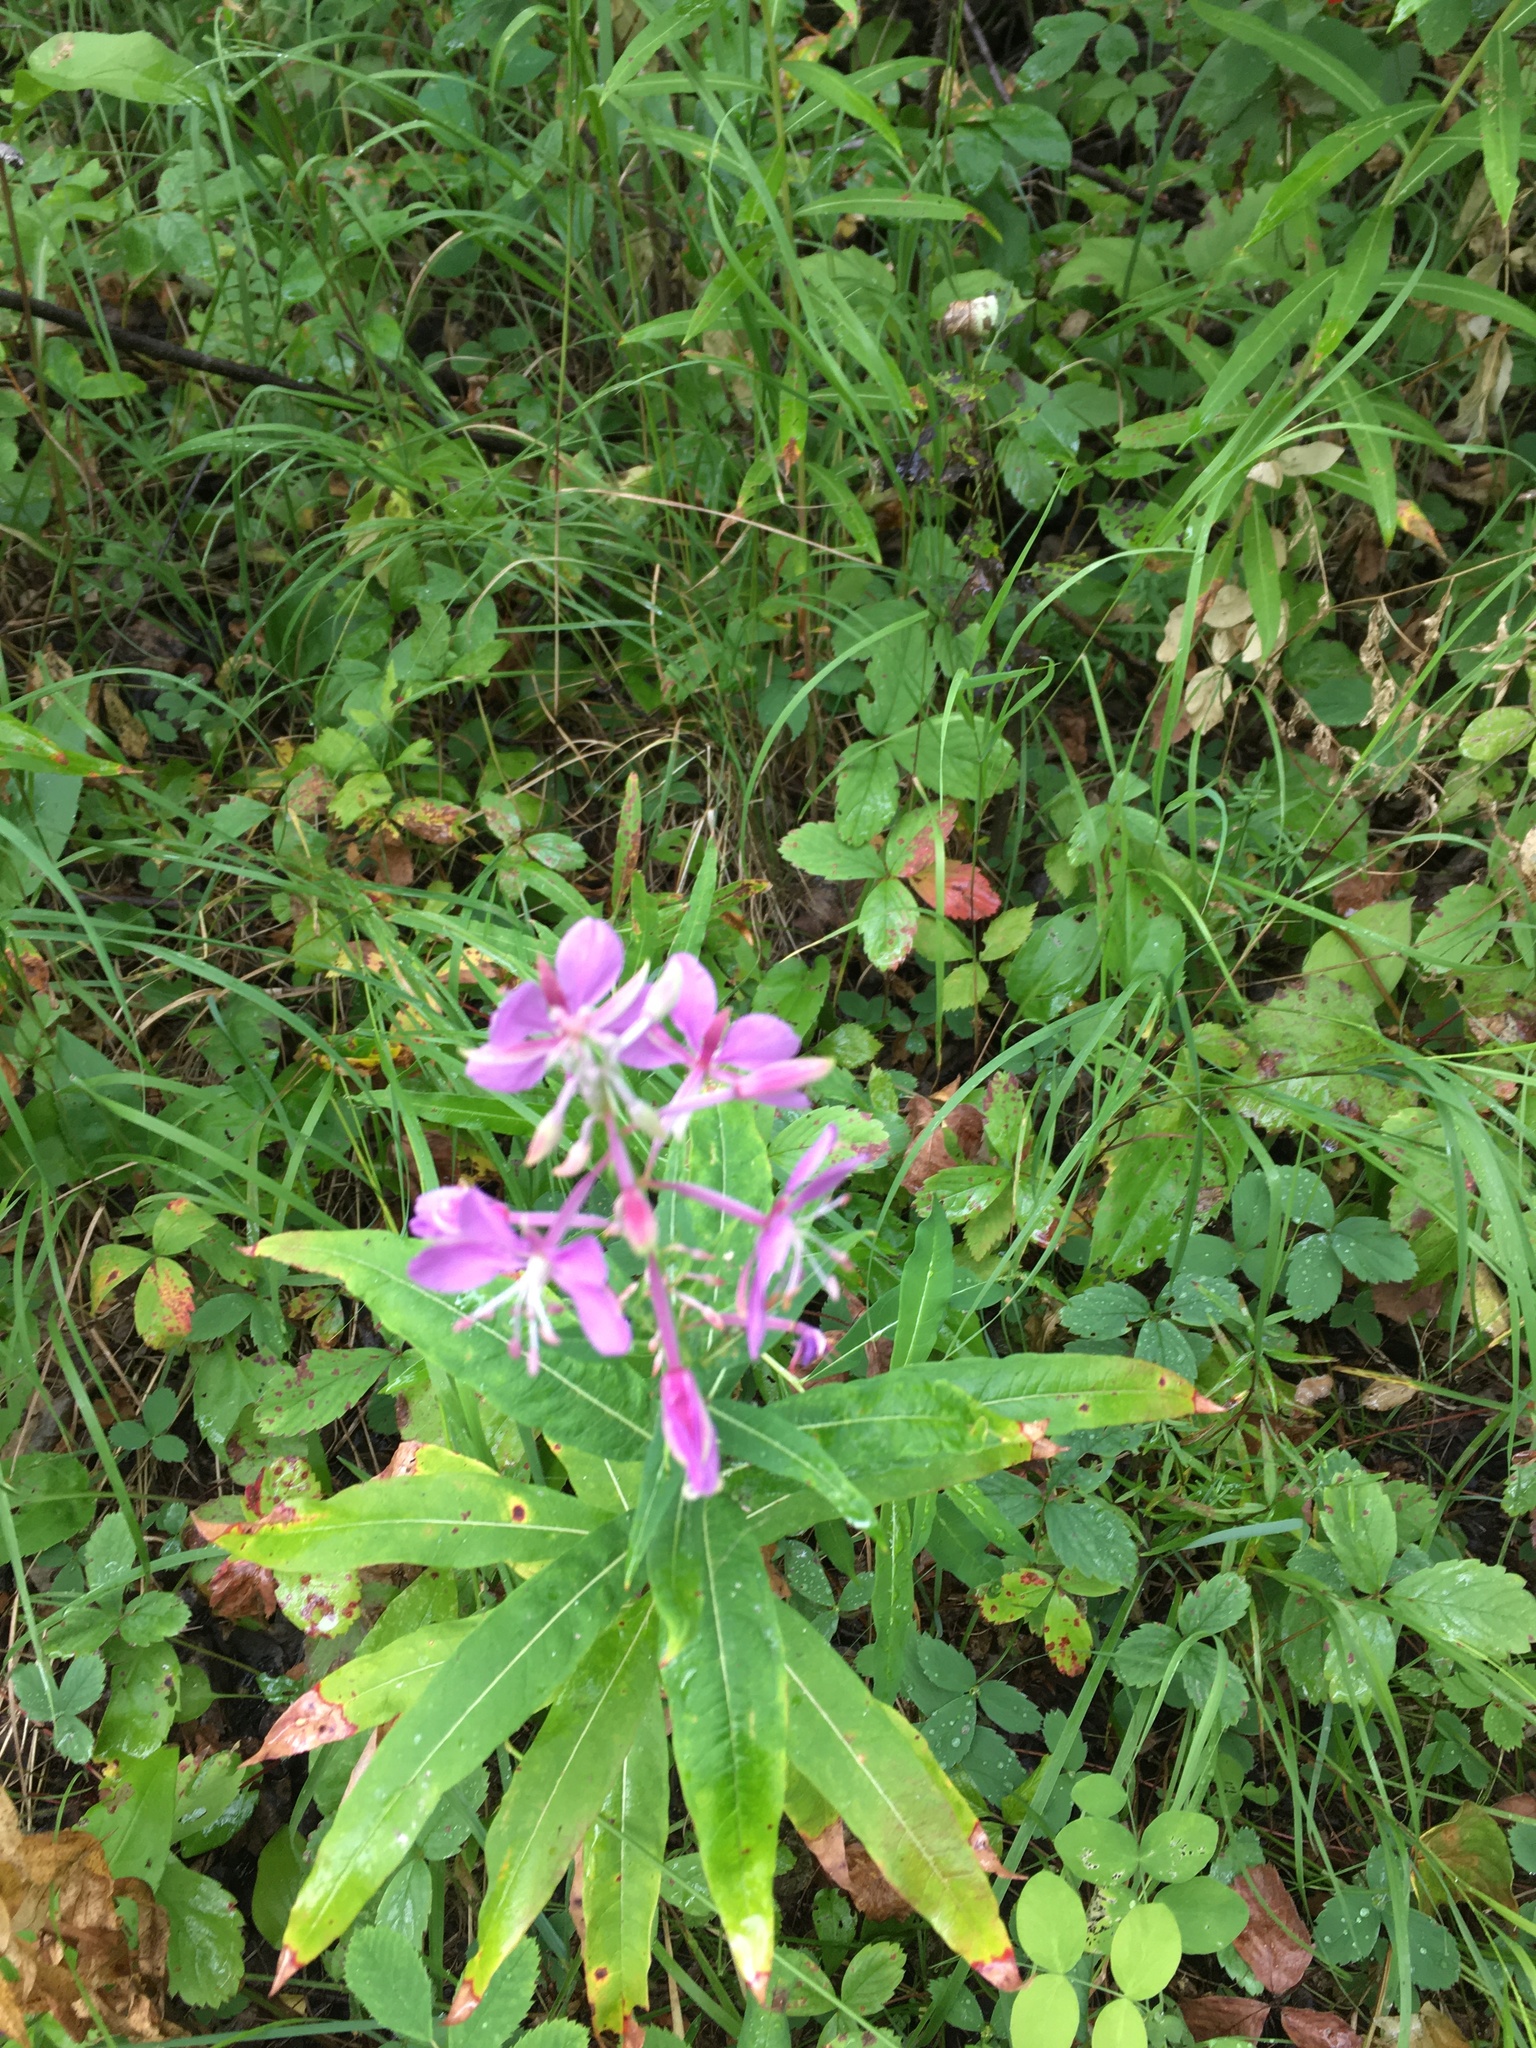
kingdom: Plantae
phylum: Tracheophyta
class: Magnoliopsida
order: Myrtales
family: Onagraceae
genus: Chamaenerion
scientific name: Chamaenerion angustifolium
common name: Fireweed
